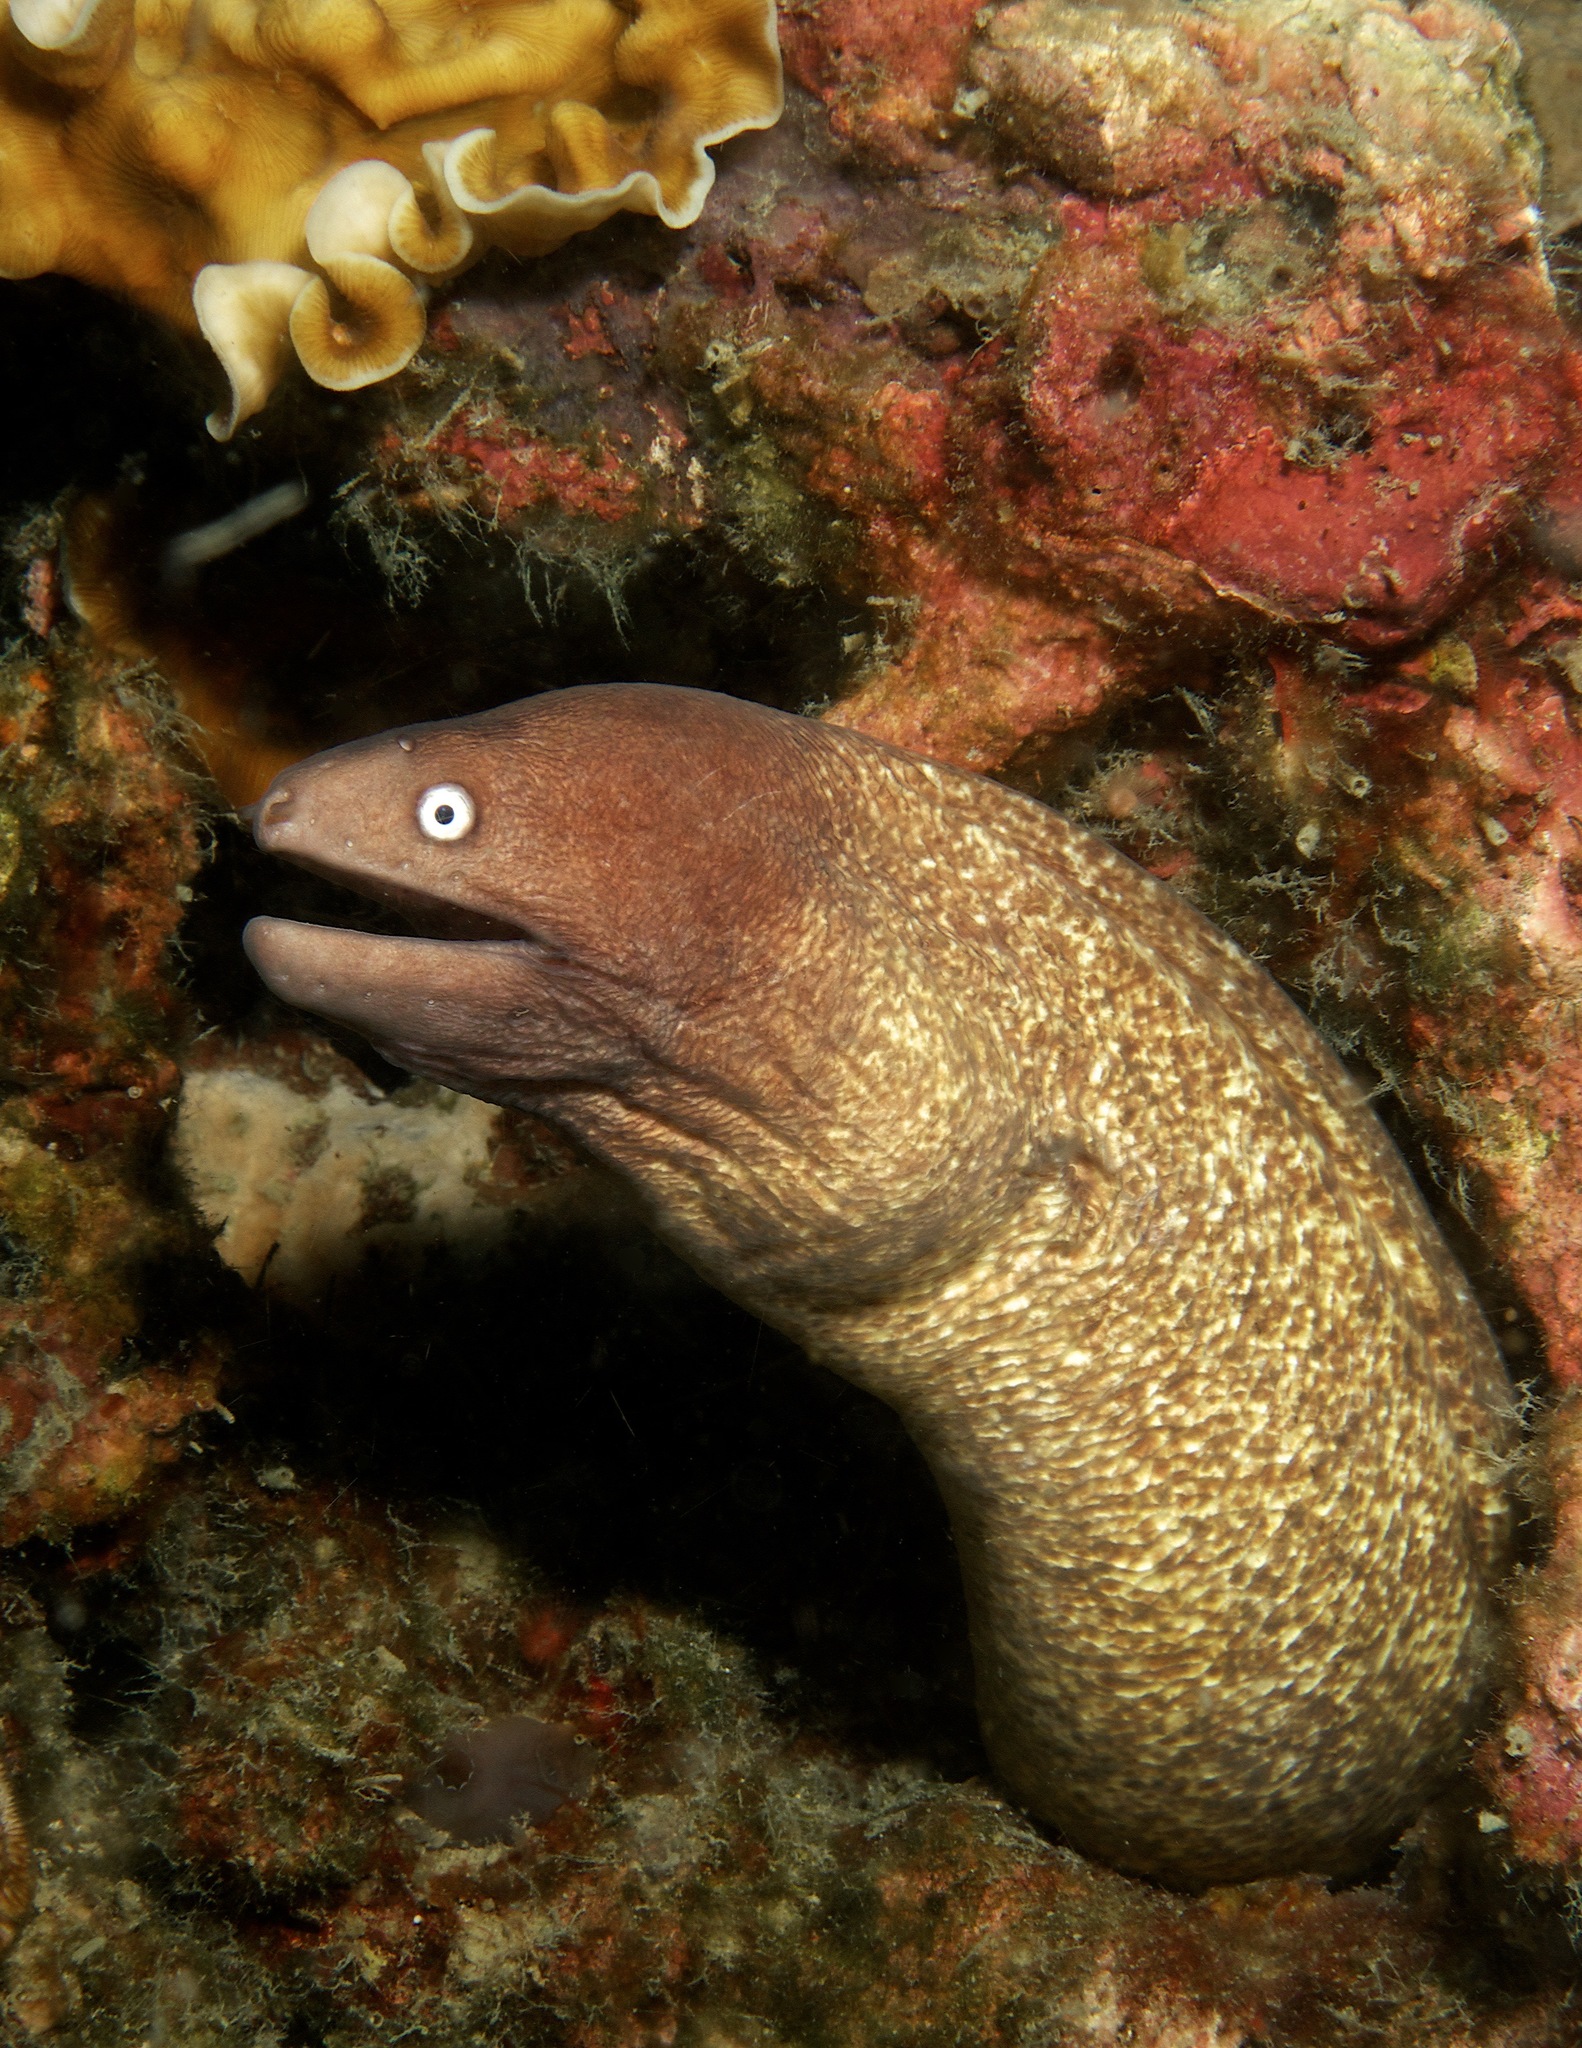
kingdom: Animalia
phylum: Chordata
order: Anguilliformes
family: Muraenidae
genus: Gymnothorax
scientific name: Gymnothorax thyrsoideus
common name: Greyface moray
